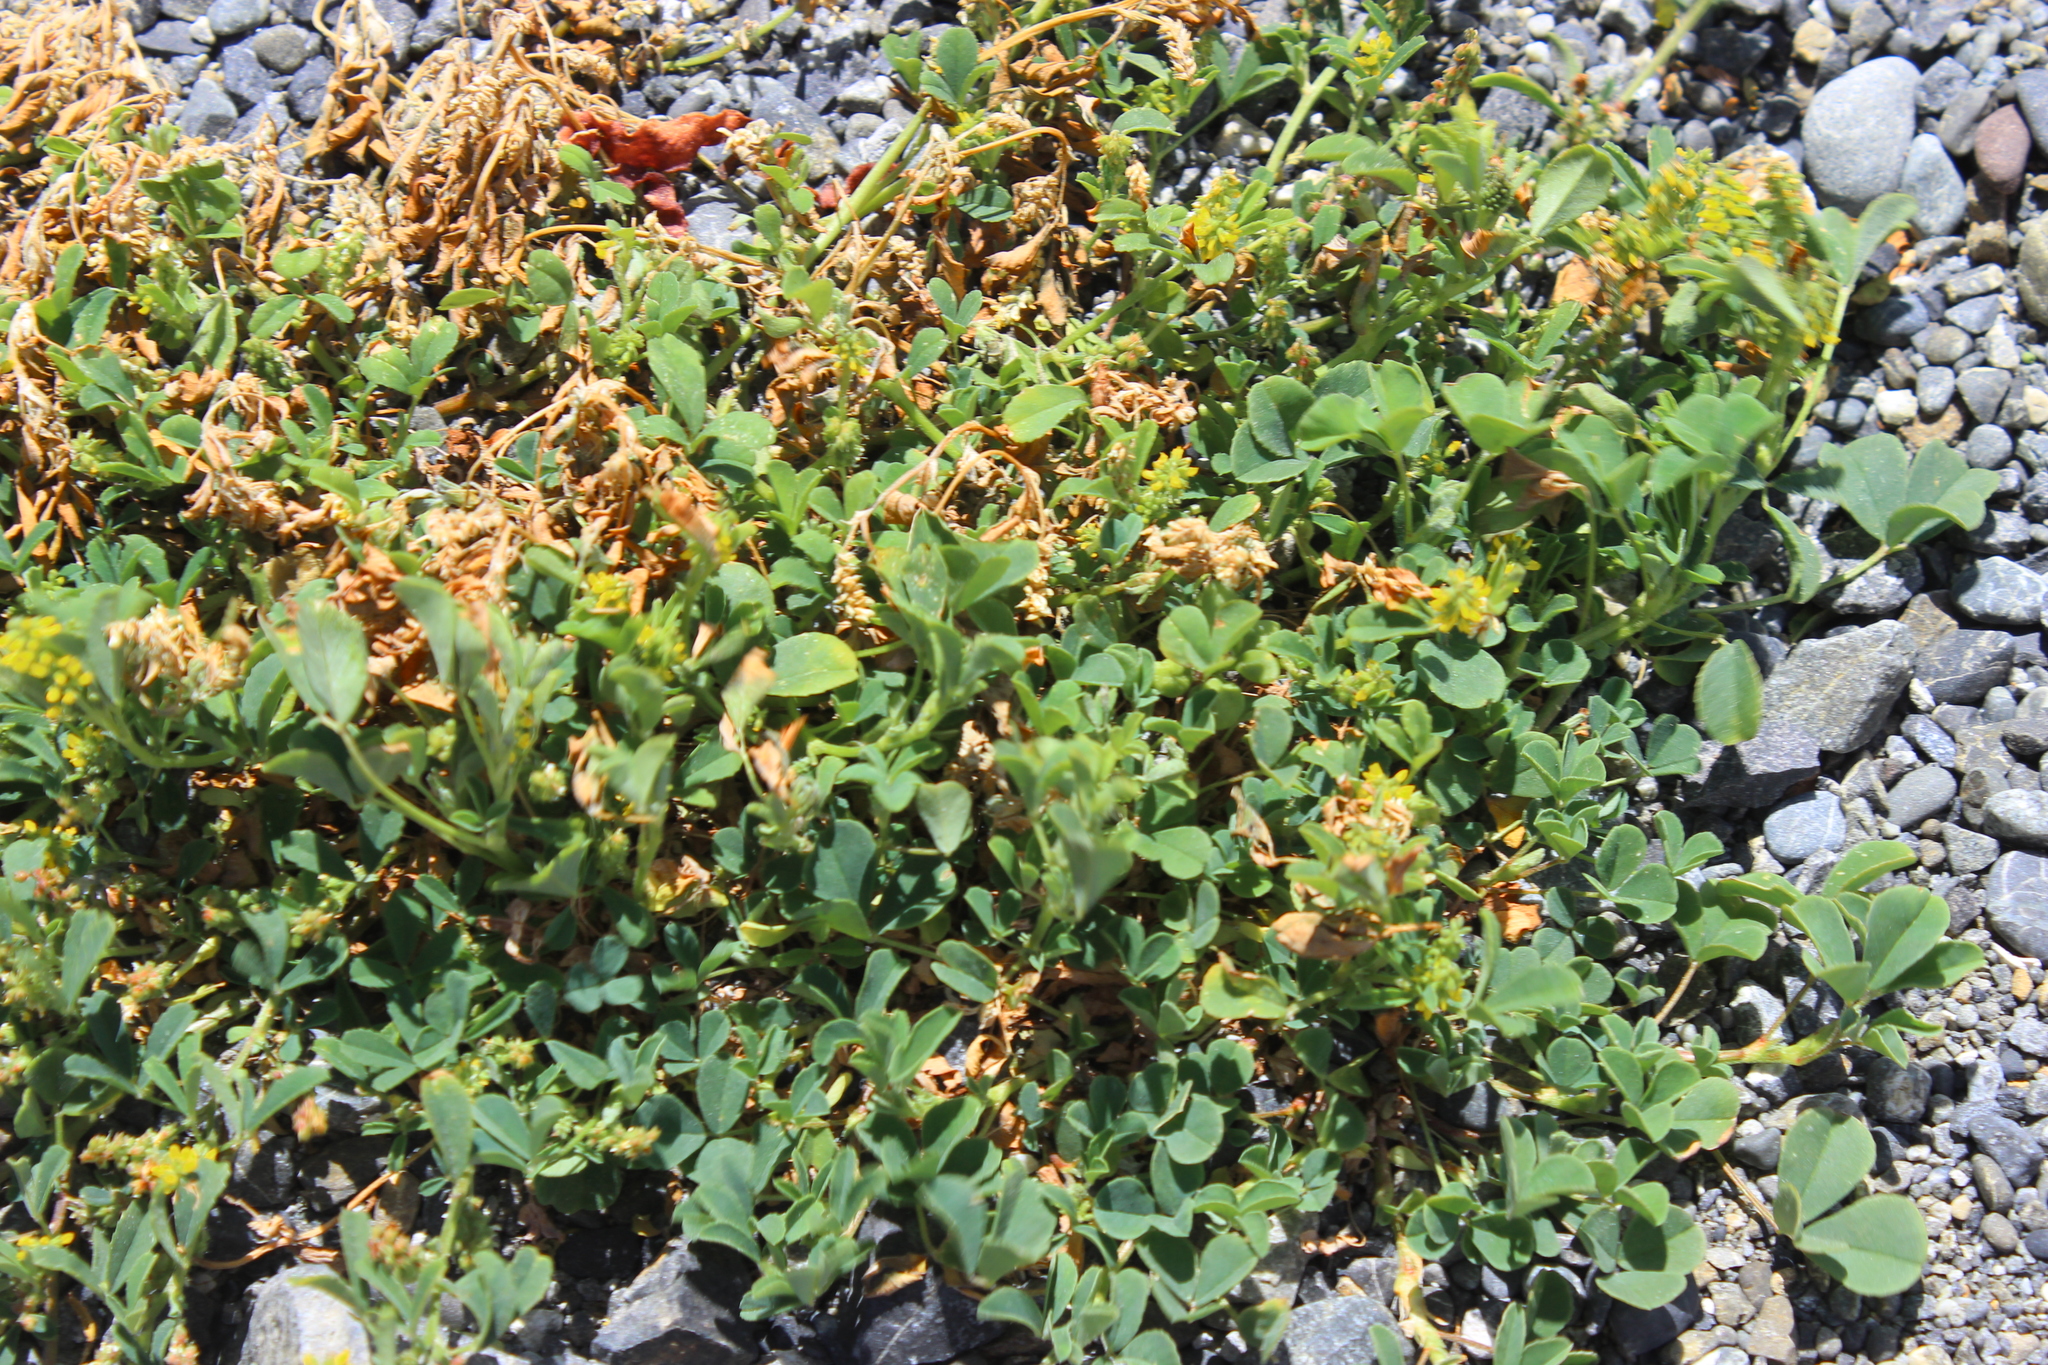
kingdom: Plantae
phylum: Tracheophyta
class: Magnoliopsida
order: Fabales
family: Fabaceae
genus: Melilotus
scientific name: Melilotus indicus
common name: Small melilot
